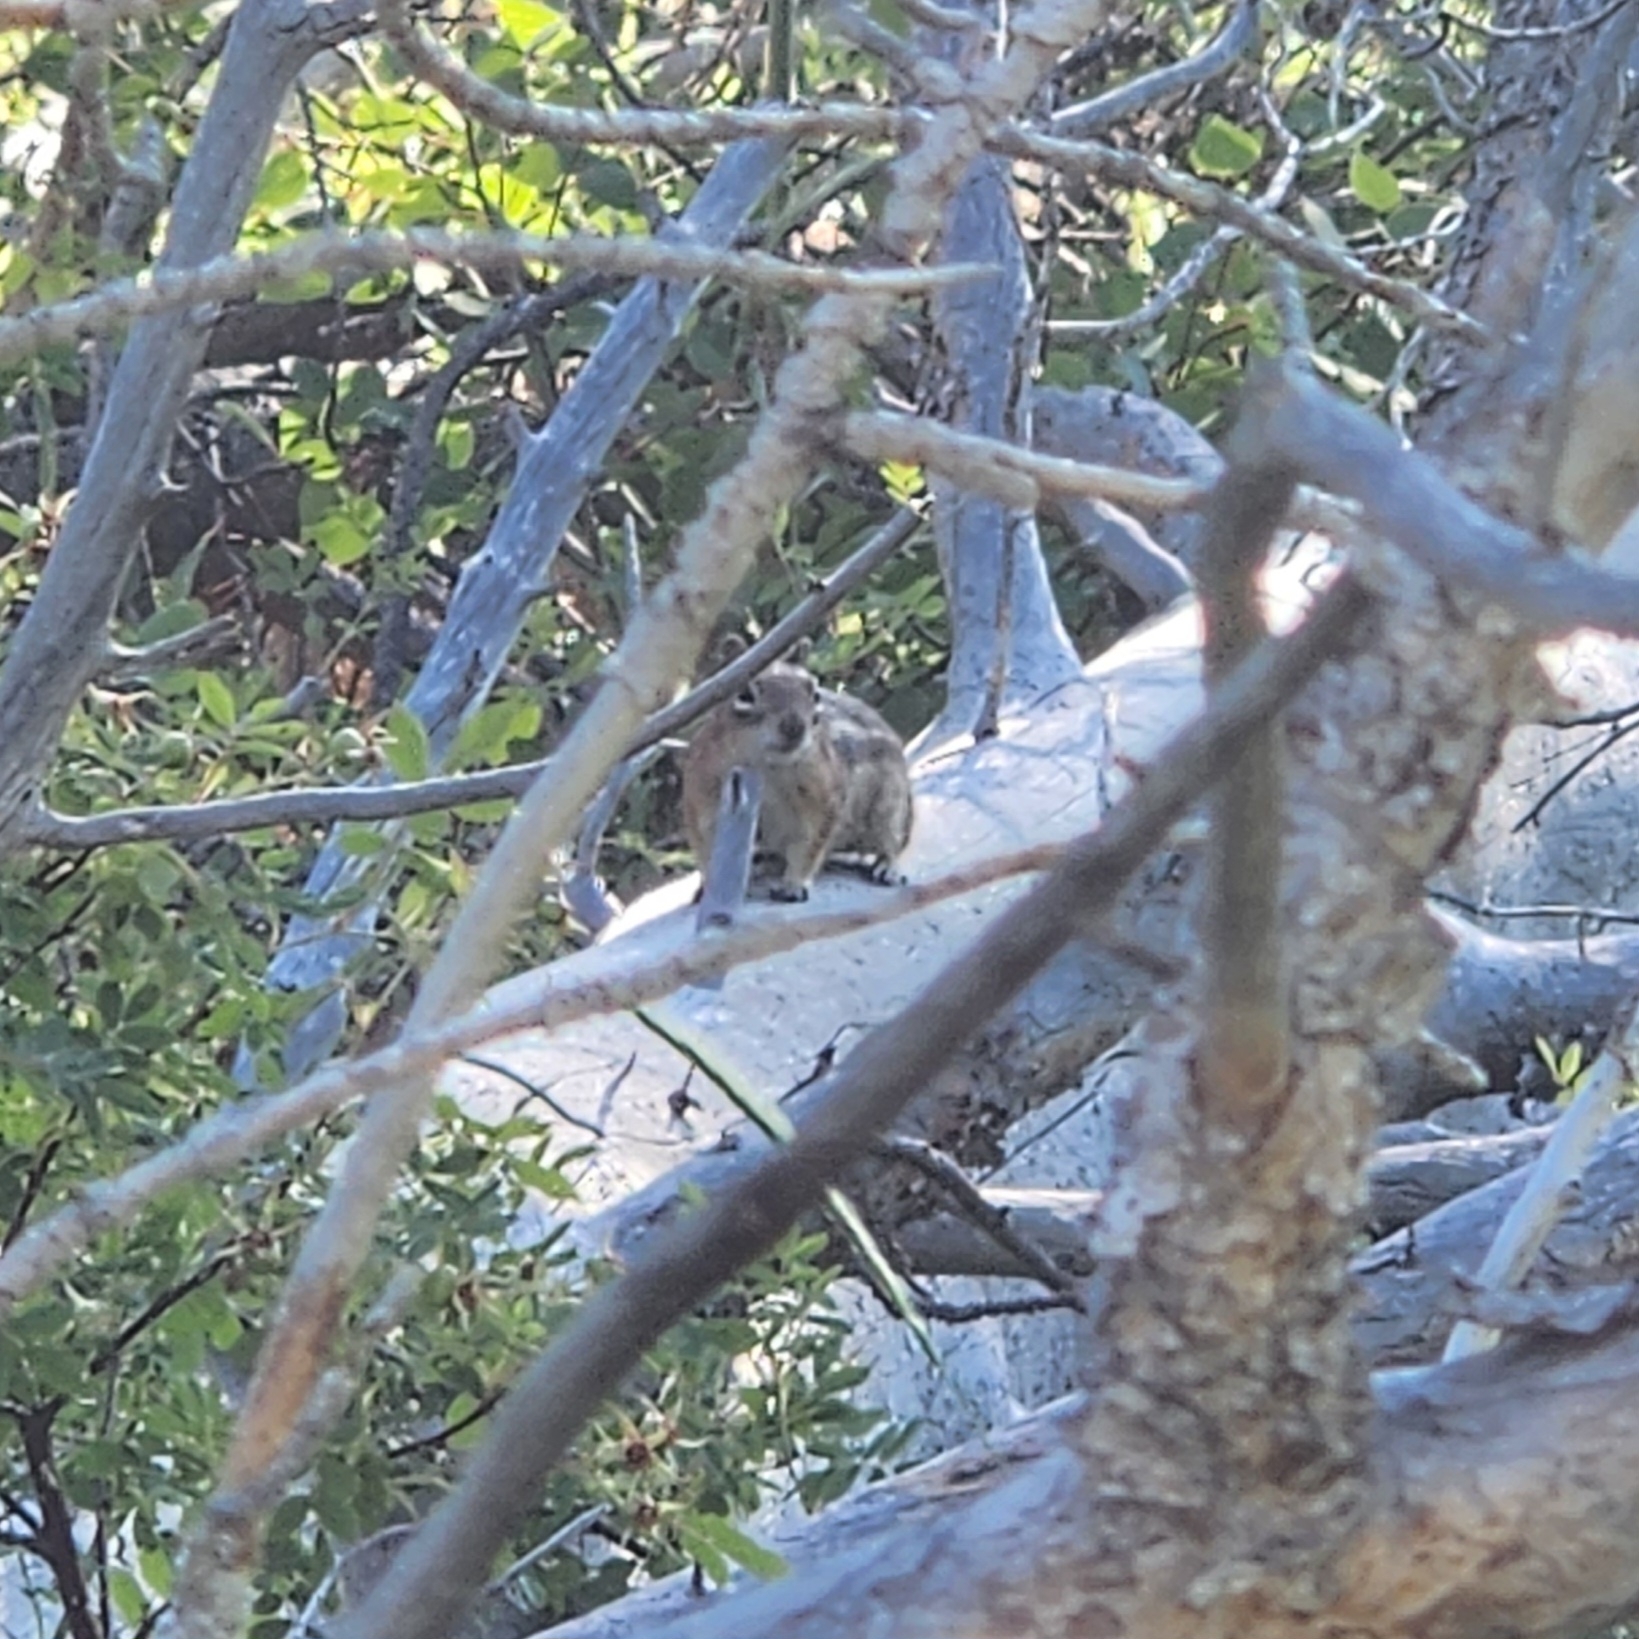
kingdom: Animalia
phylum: Chordata
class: Mammalia
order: Rodentia
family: Sciuridae
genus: Callospermophilus
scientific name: Callospermophilus lateralis
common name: Golden-mantled ground squirrel
